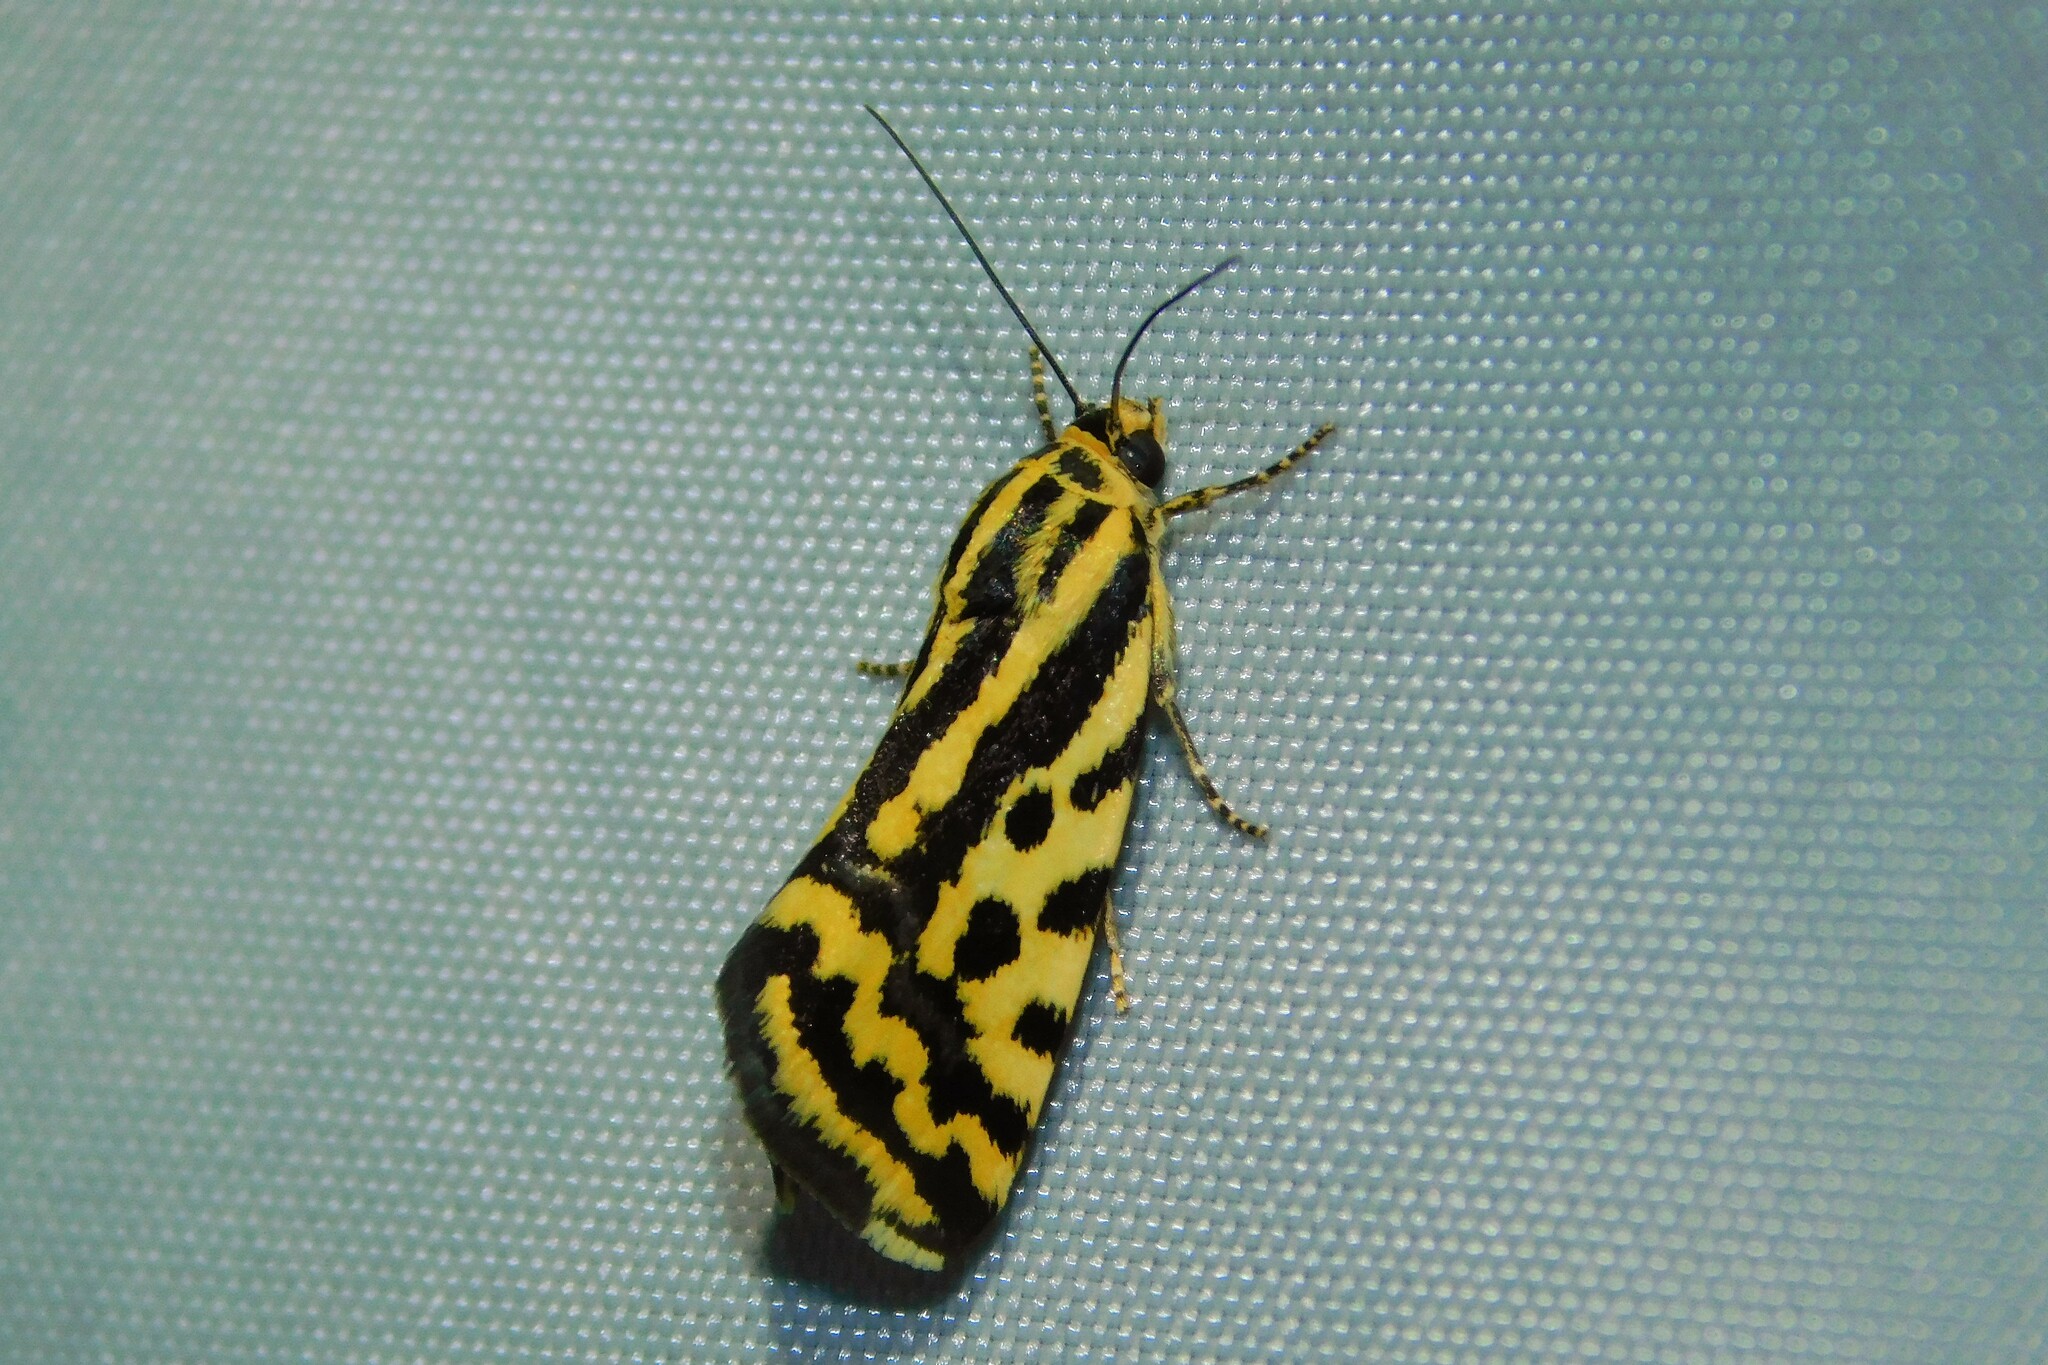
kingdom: Animalia
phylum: Arthropoda
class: Insecta
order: Lepidoptera
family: Noctuidae
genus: Acontia
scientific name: Acontia trabealis
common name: Spotted sulphur
